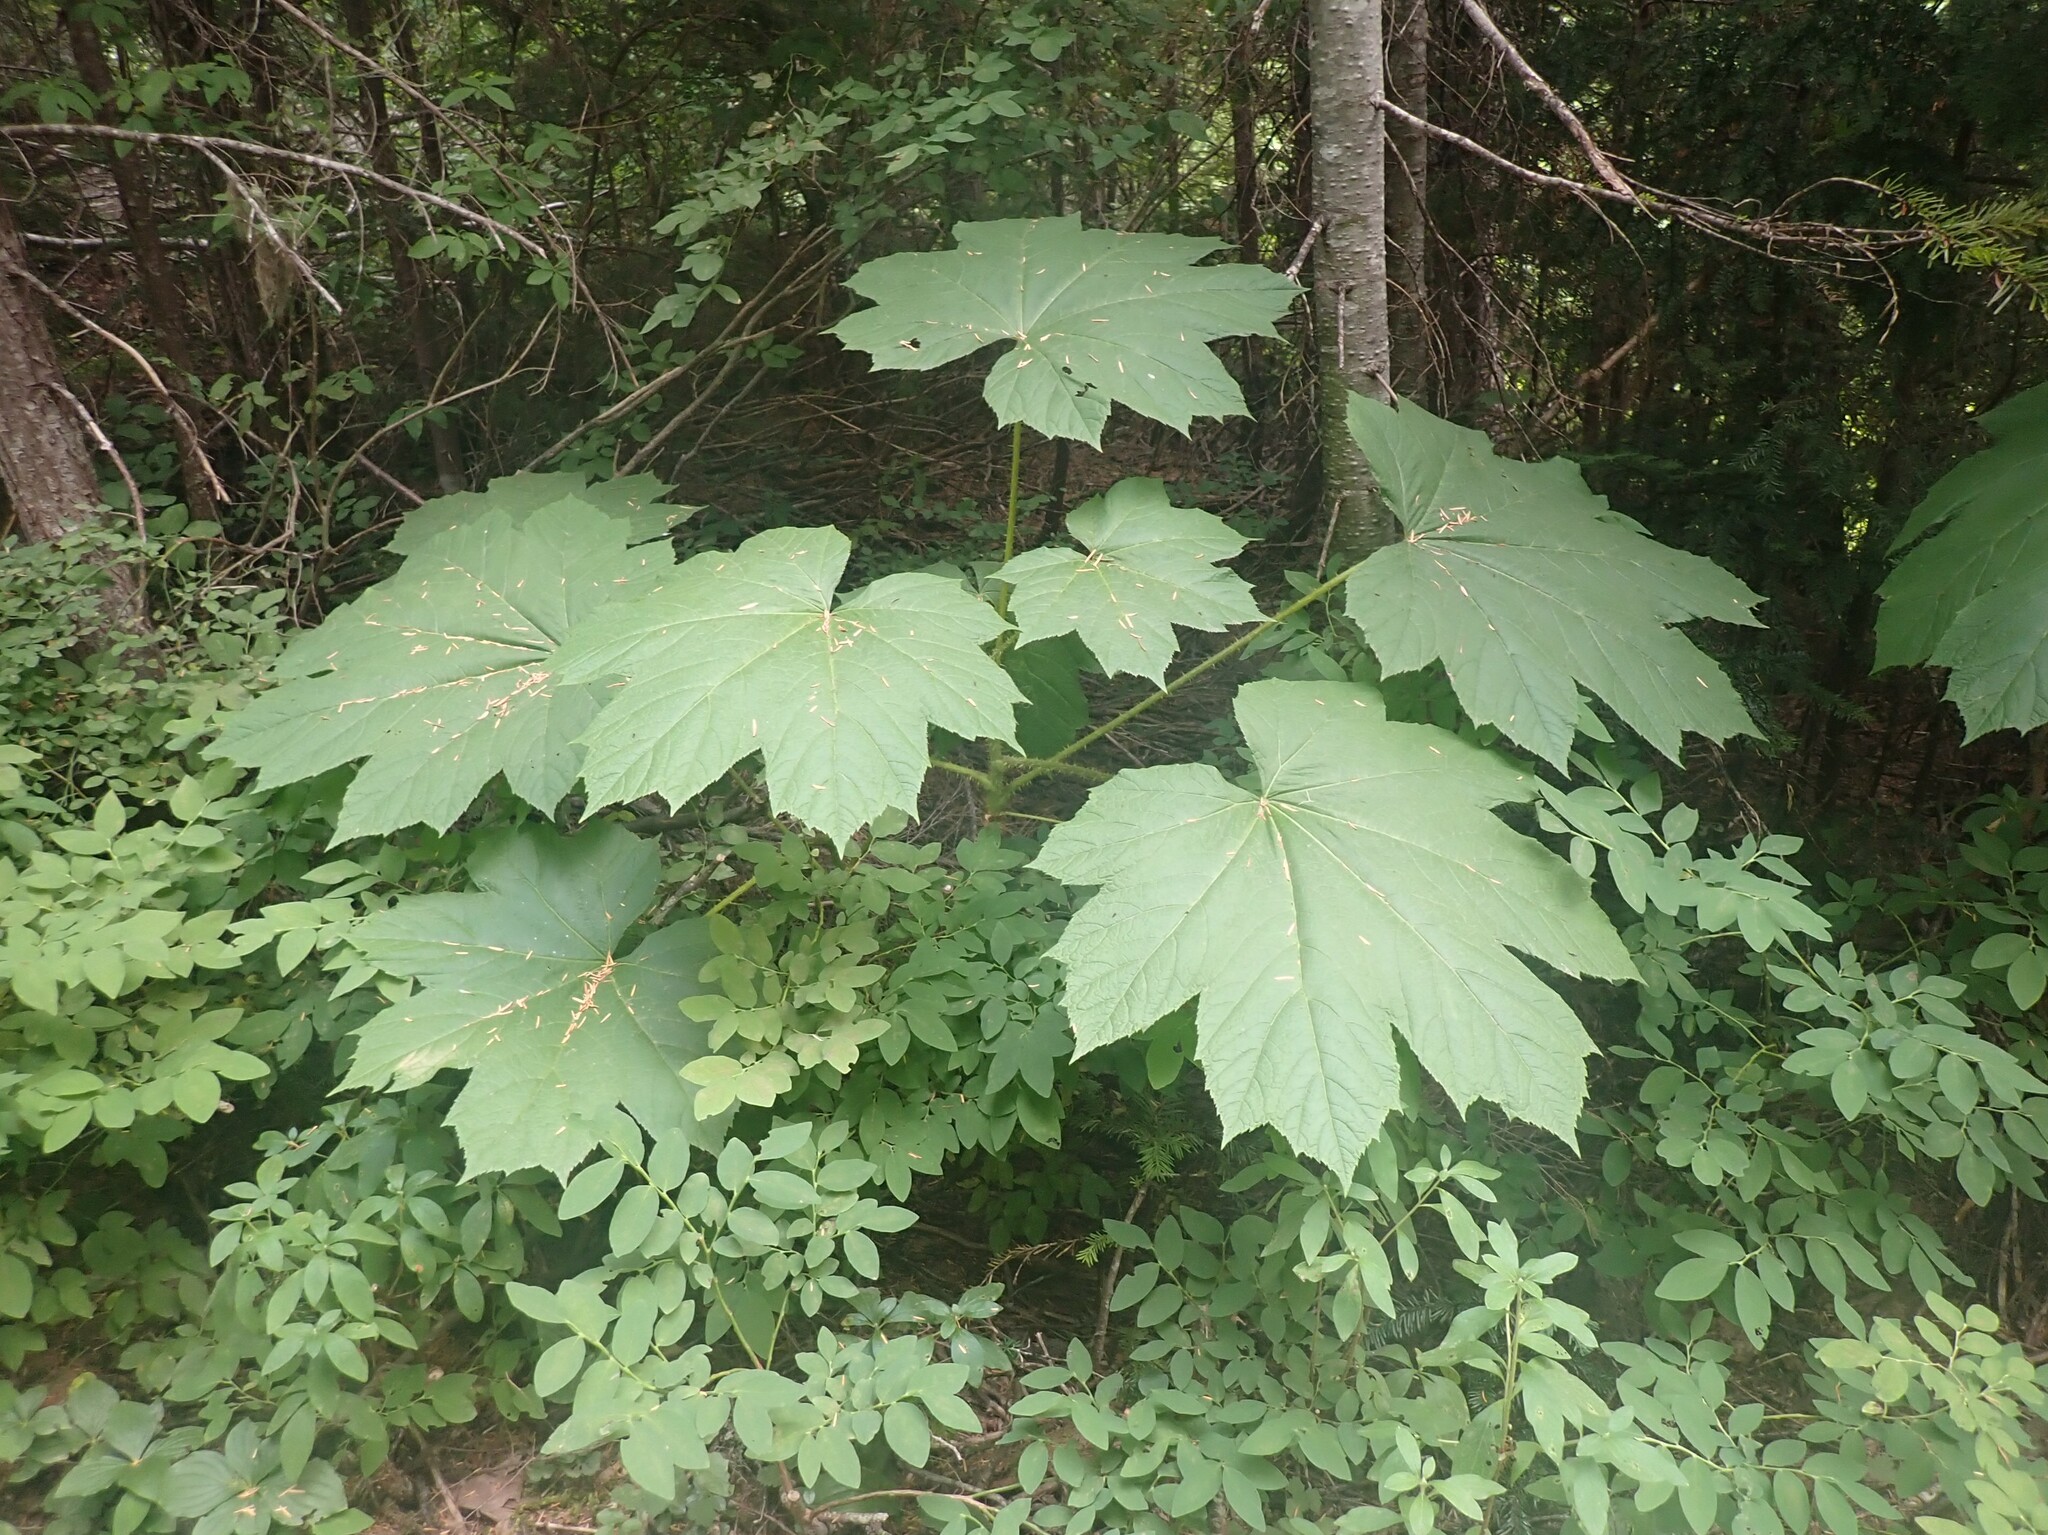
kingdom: Plantae
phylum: Tracheophyta
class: Magnoliopsida
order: Apiales
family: Araliaceae
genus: Oplopanax
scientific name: Oplopanax horridus
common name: Devil's walking-stick
